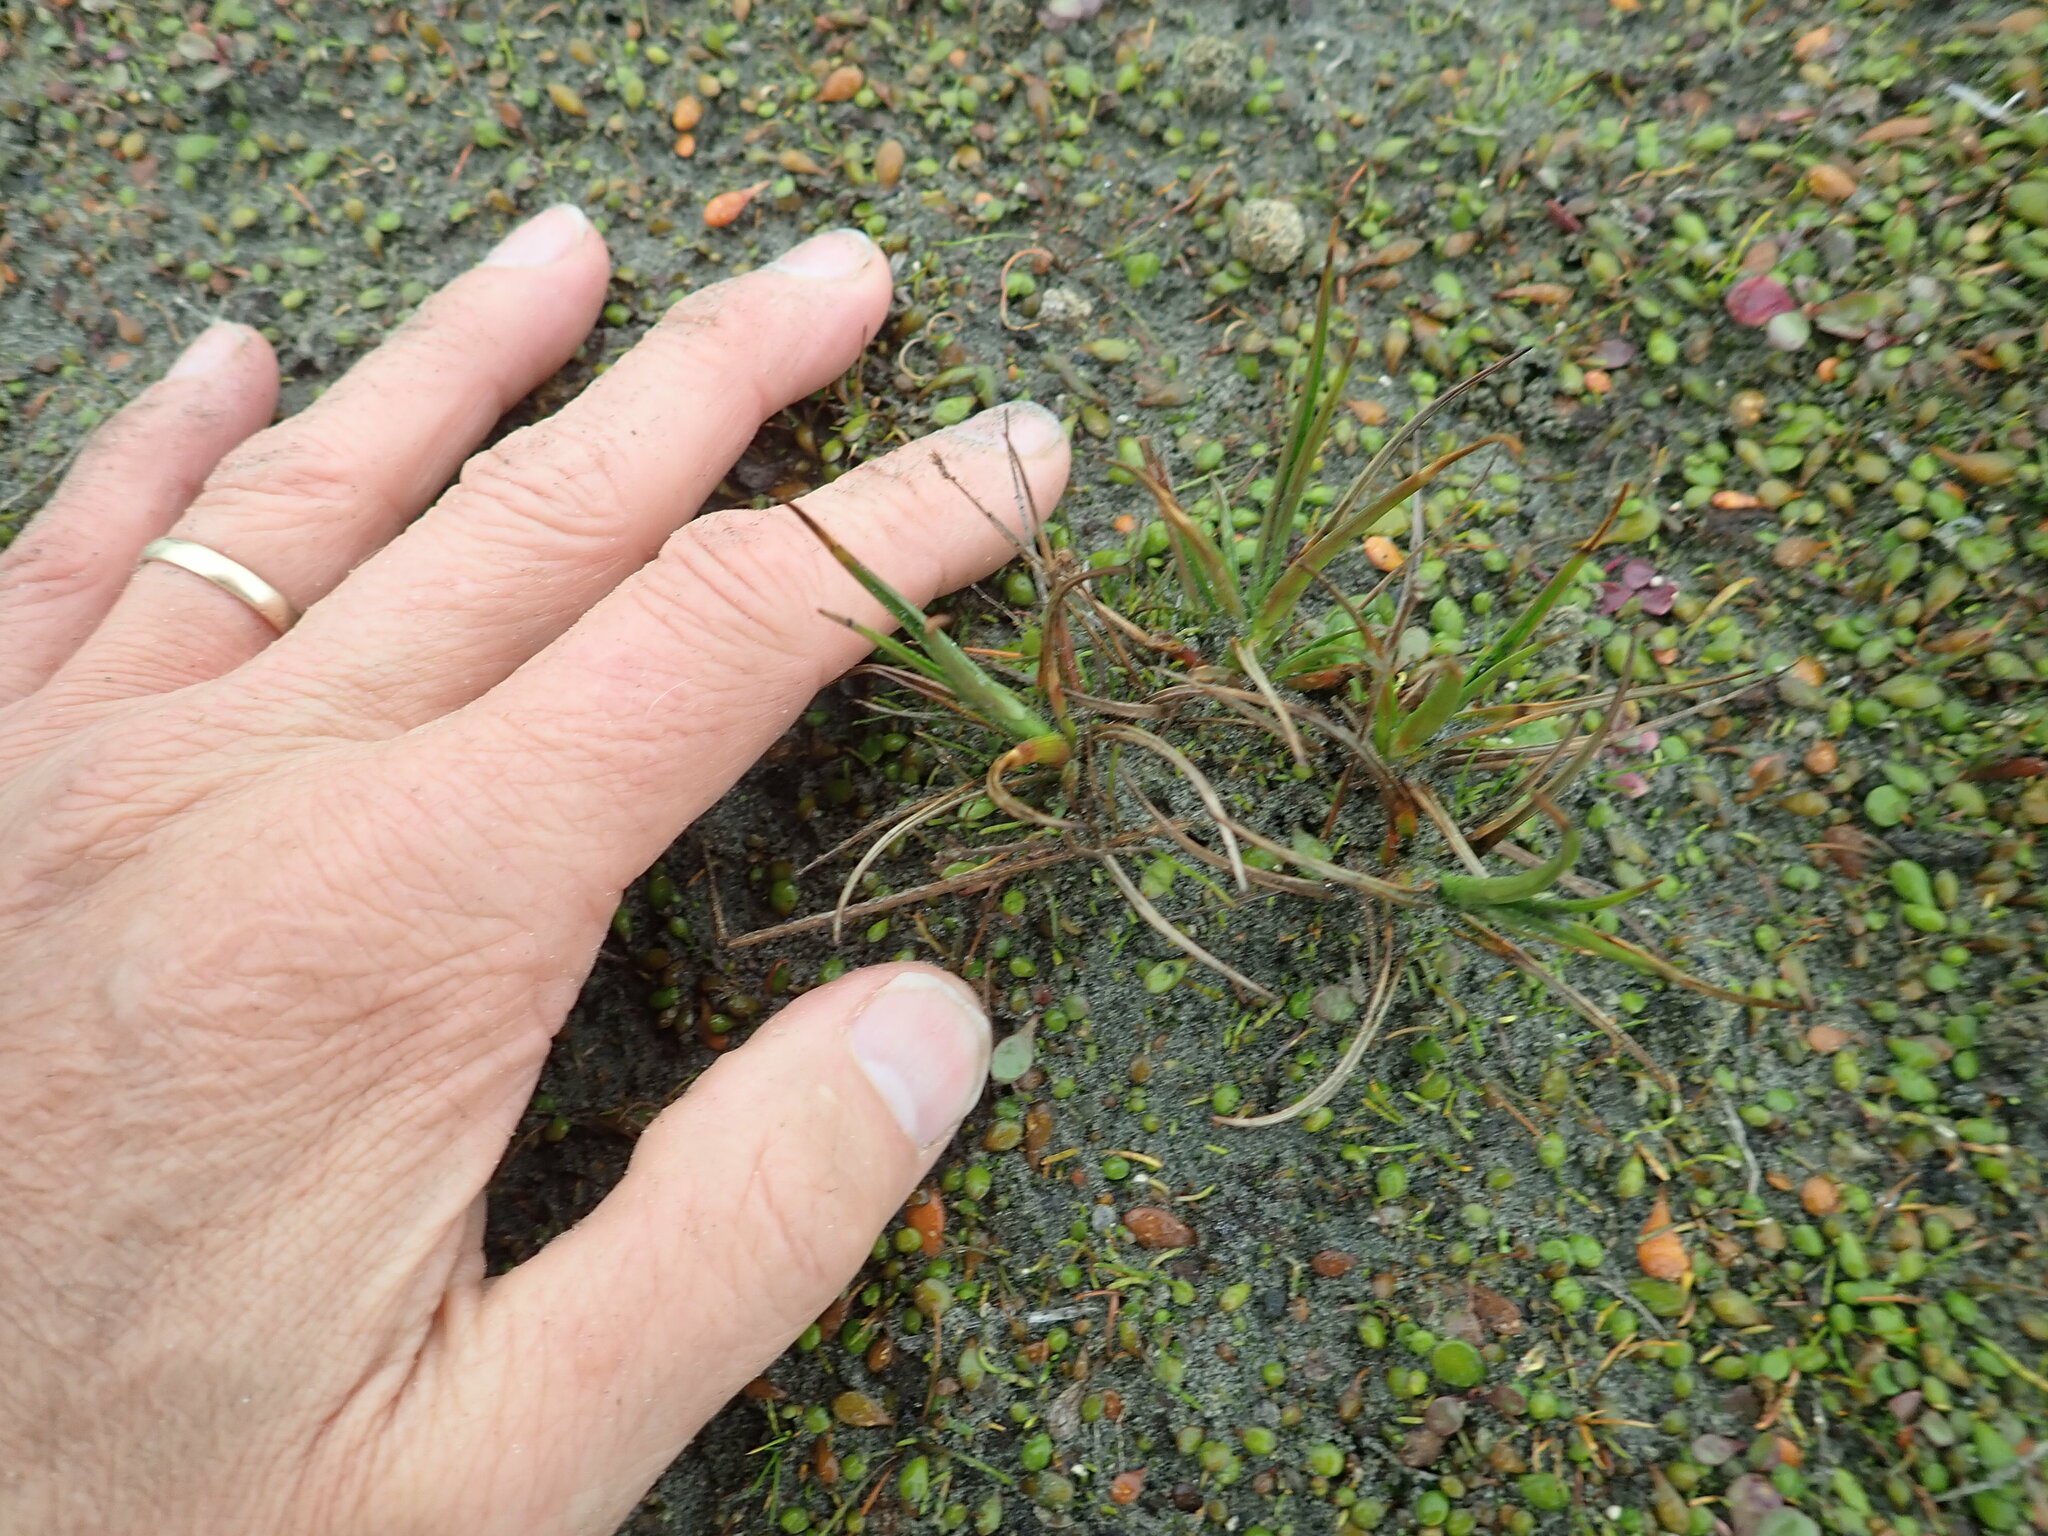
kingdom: Plantae
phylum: Tracheophyta
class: Liliopsida
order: Poales
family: Juncaceae
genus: Juncus
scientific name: Juncus caespiticius
